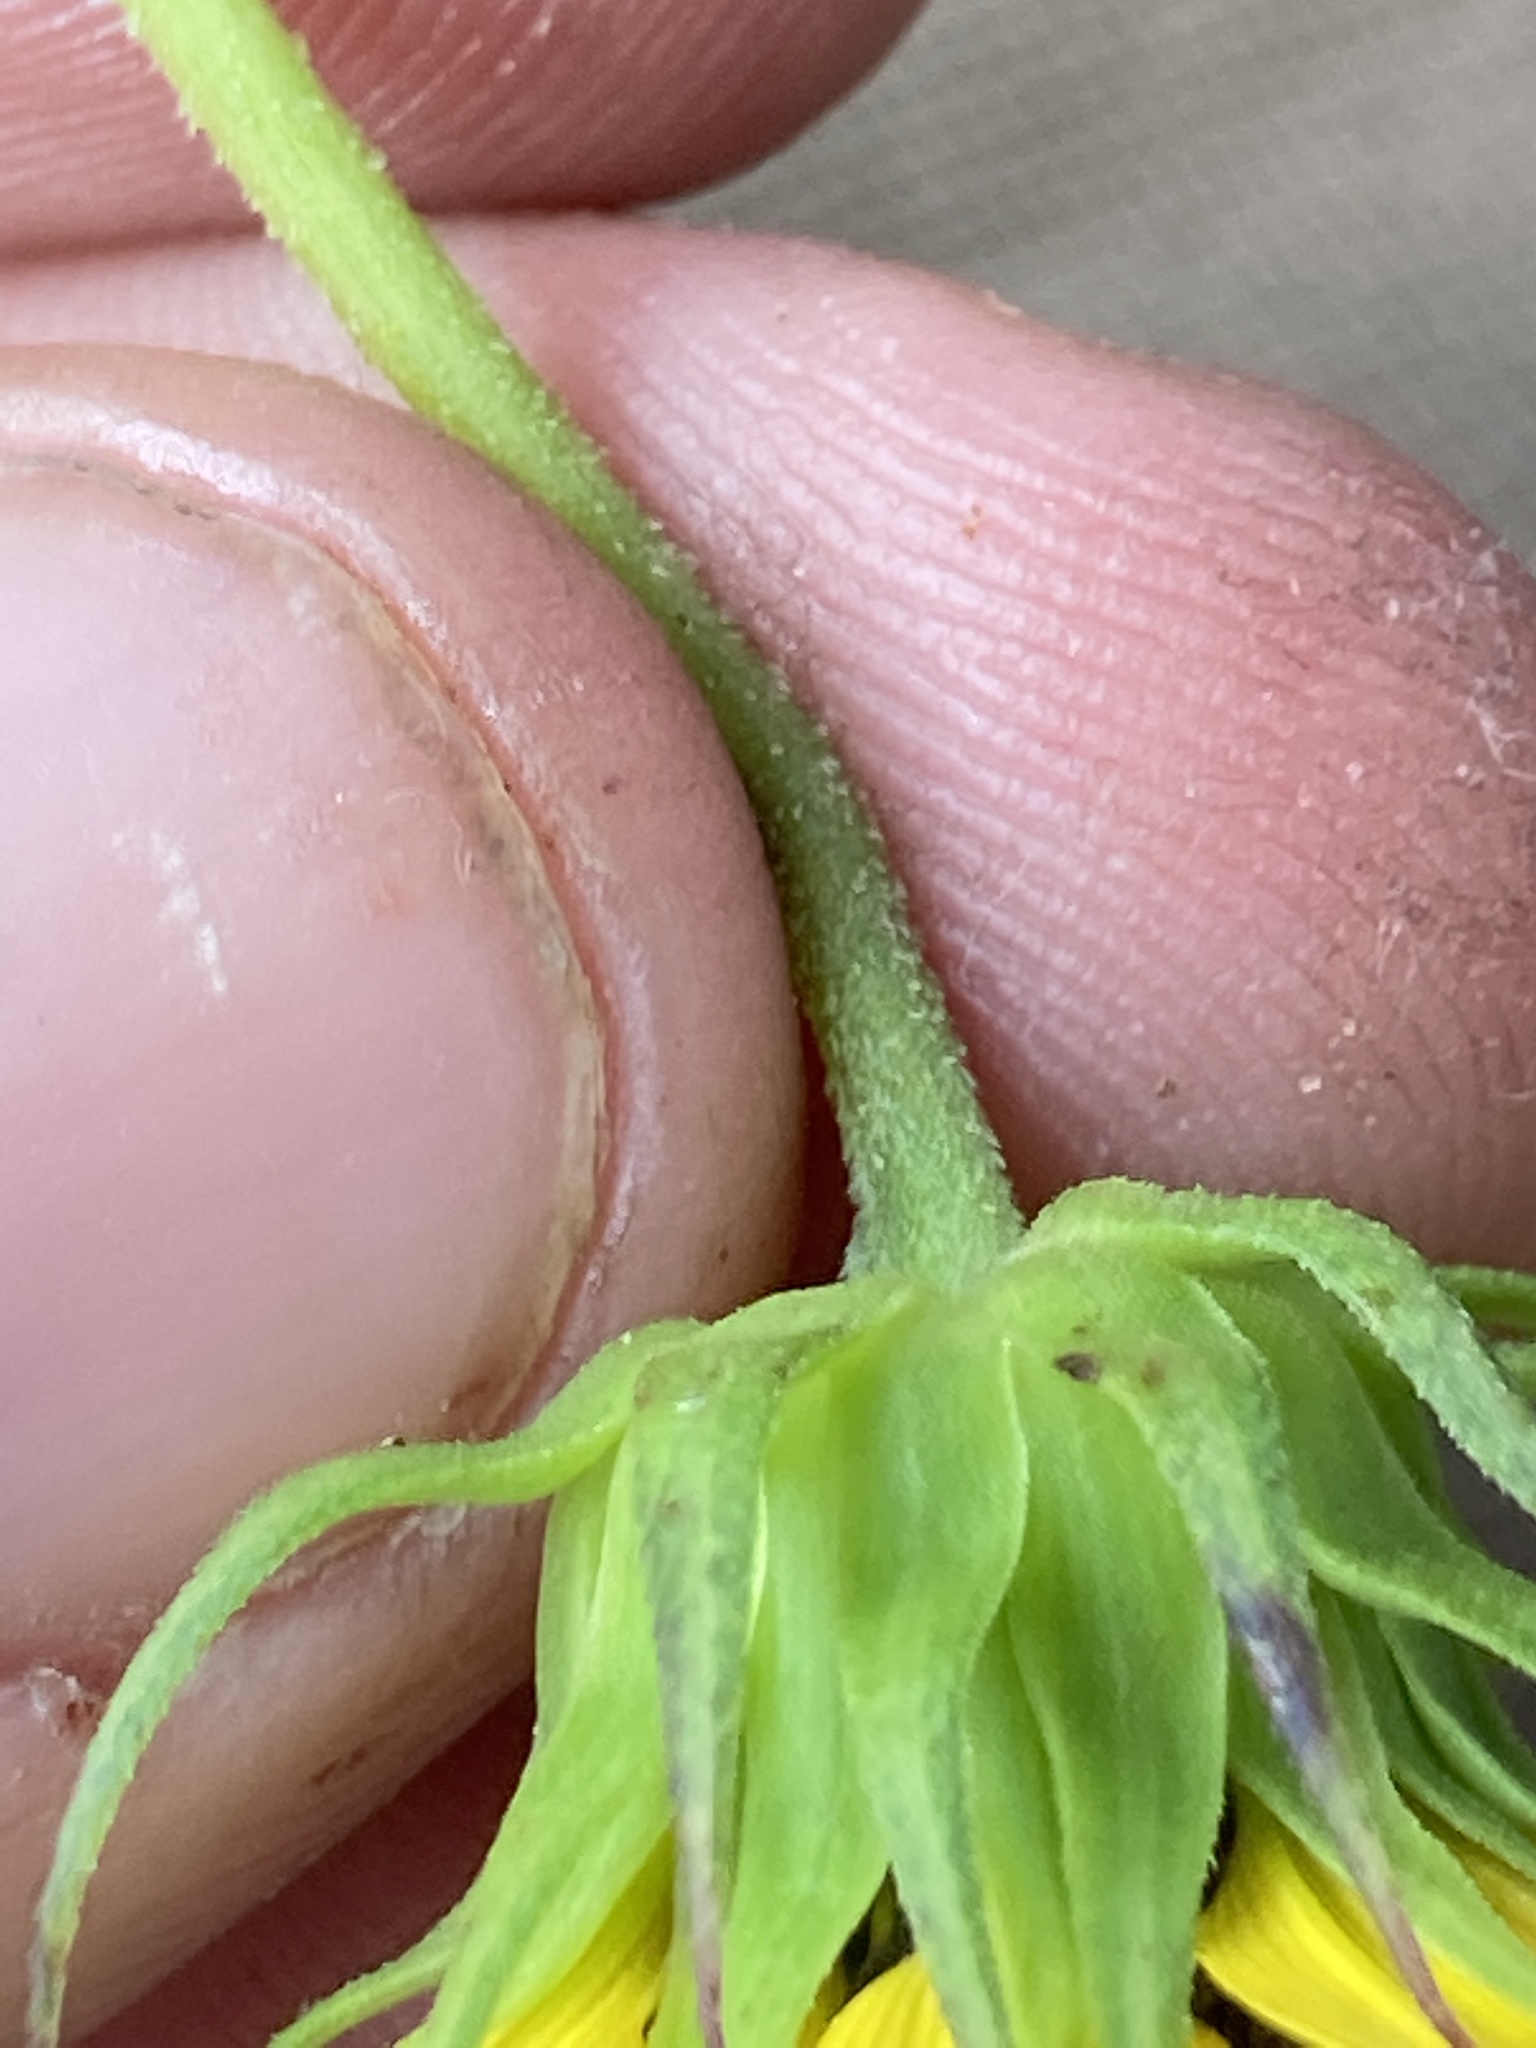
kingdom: Plantae
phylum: Tracheophyta
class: Magnoliopsida
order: Asterales
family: Asteraceae
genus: Helianthus
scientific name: Helianthus debilis
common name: Weak sunflower
